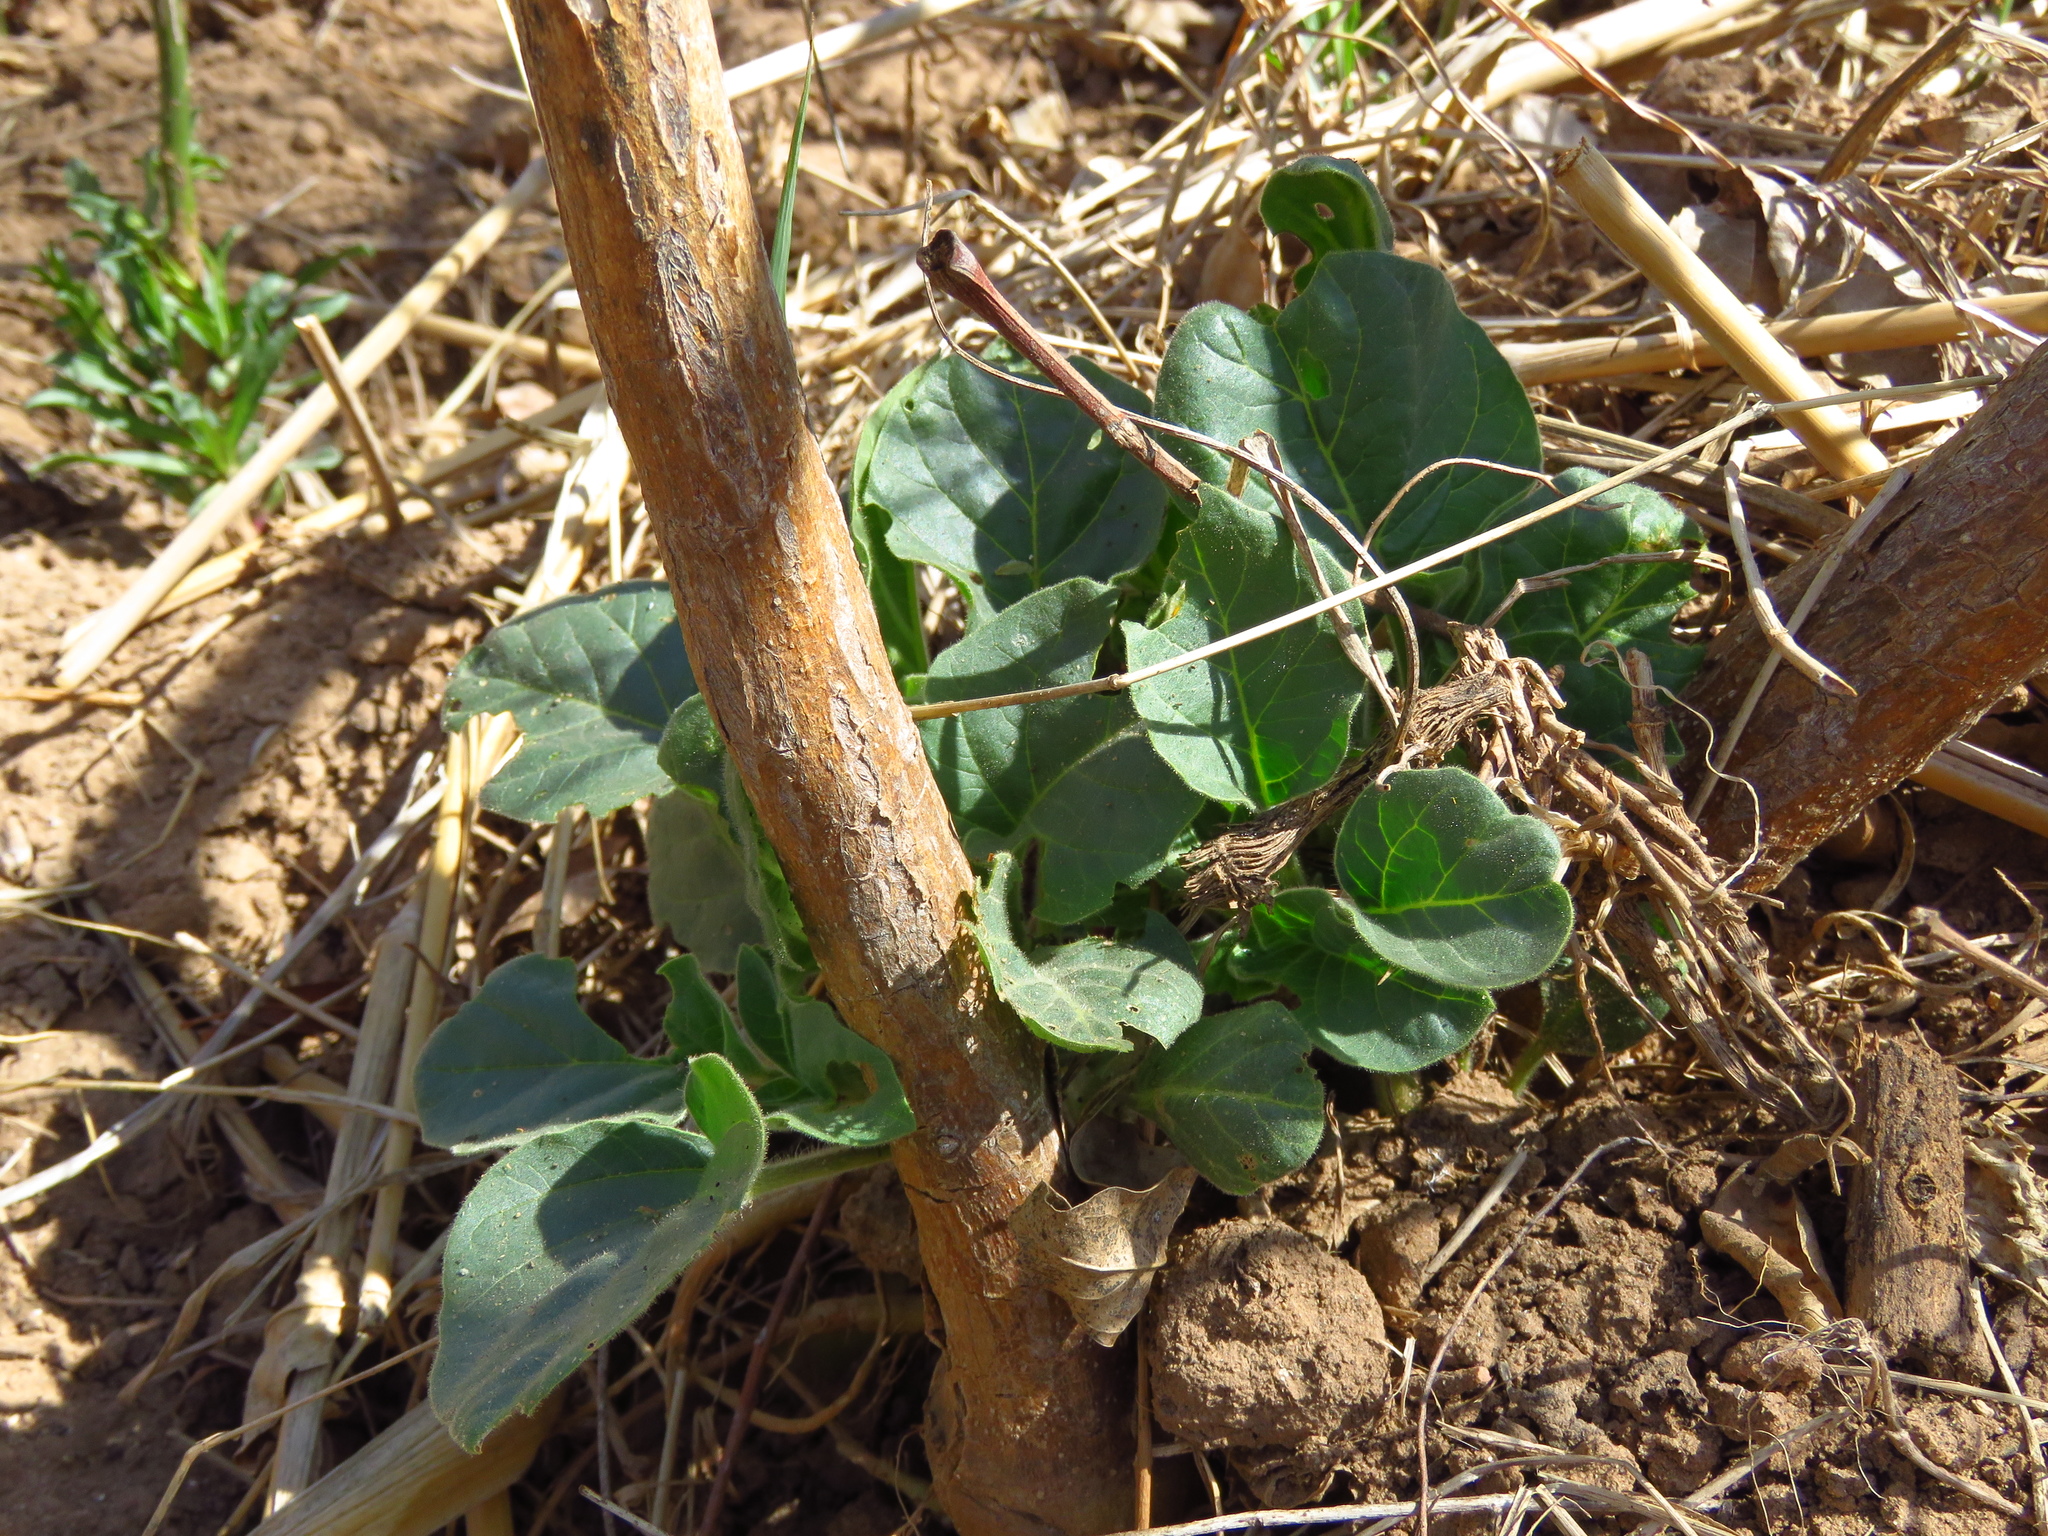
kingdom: Plantae
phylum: Tracheophyta
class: Magnoliopsida
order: Solanales
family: Solanaceae
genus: Datura
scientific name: Datura wrightii
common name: Sacred thorn-apple
